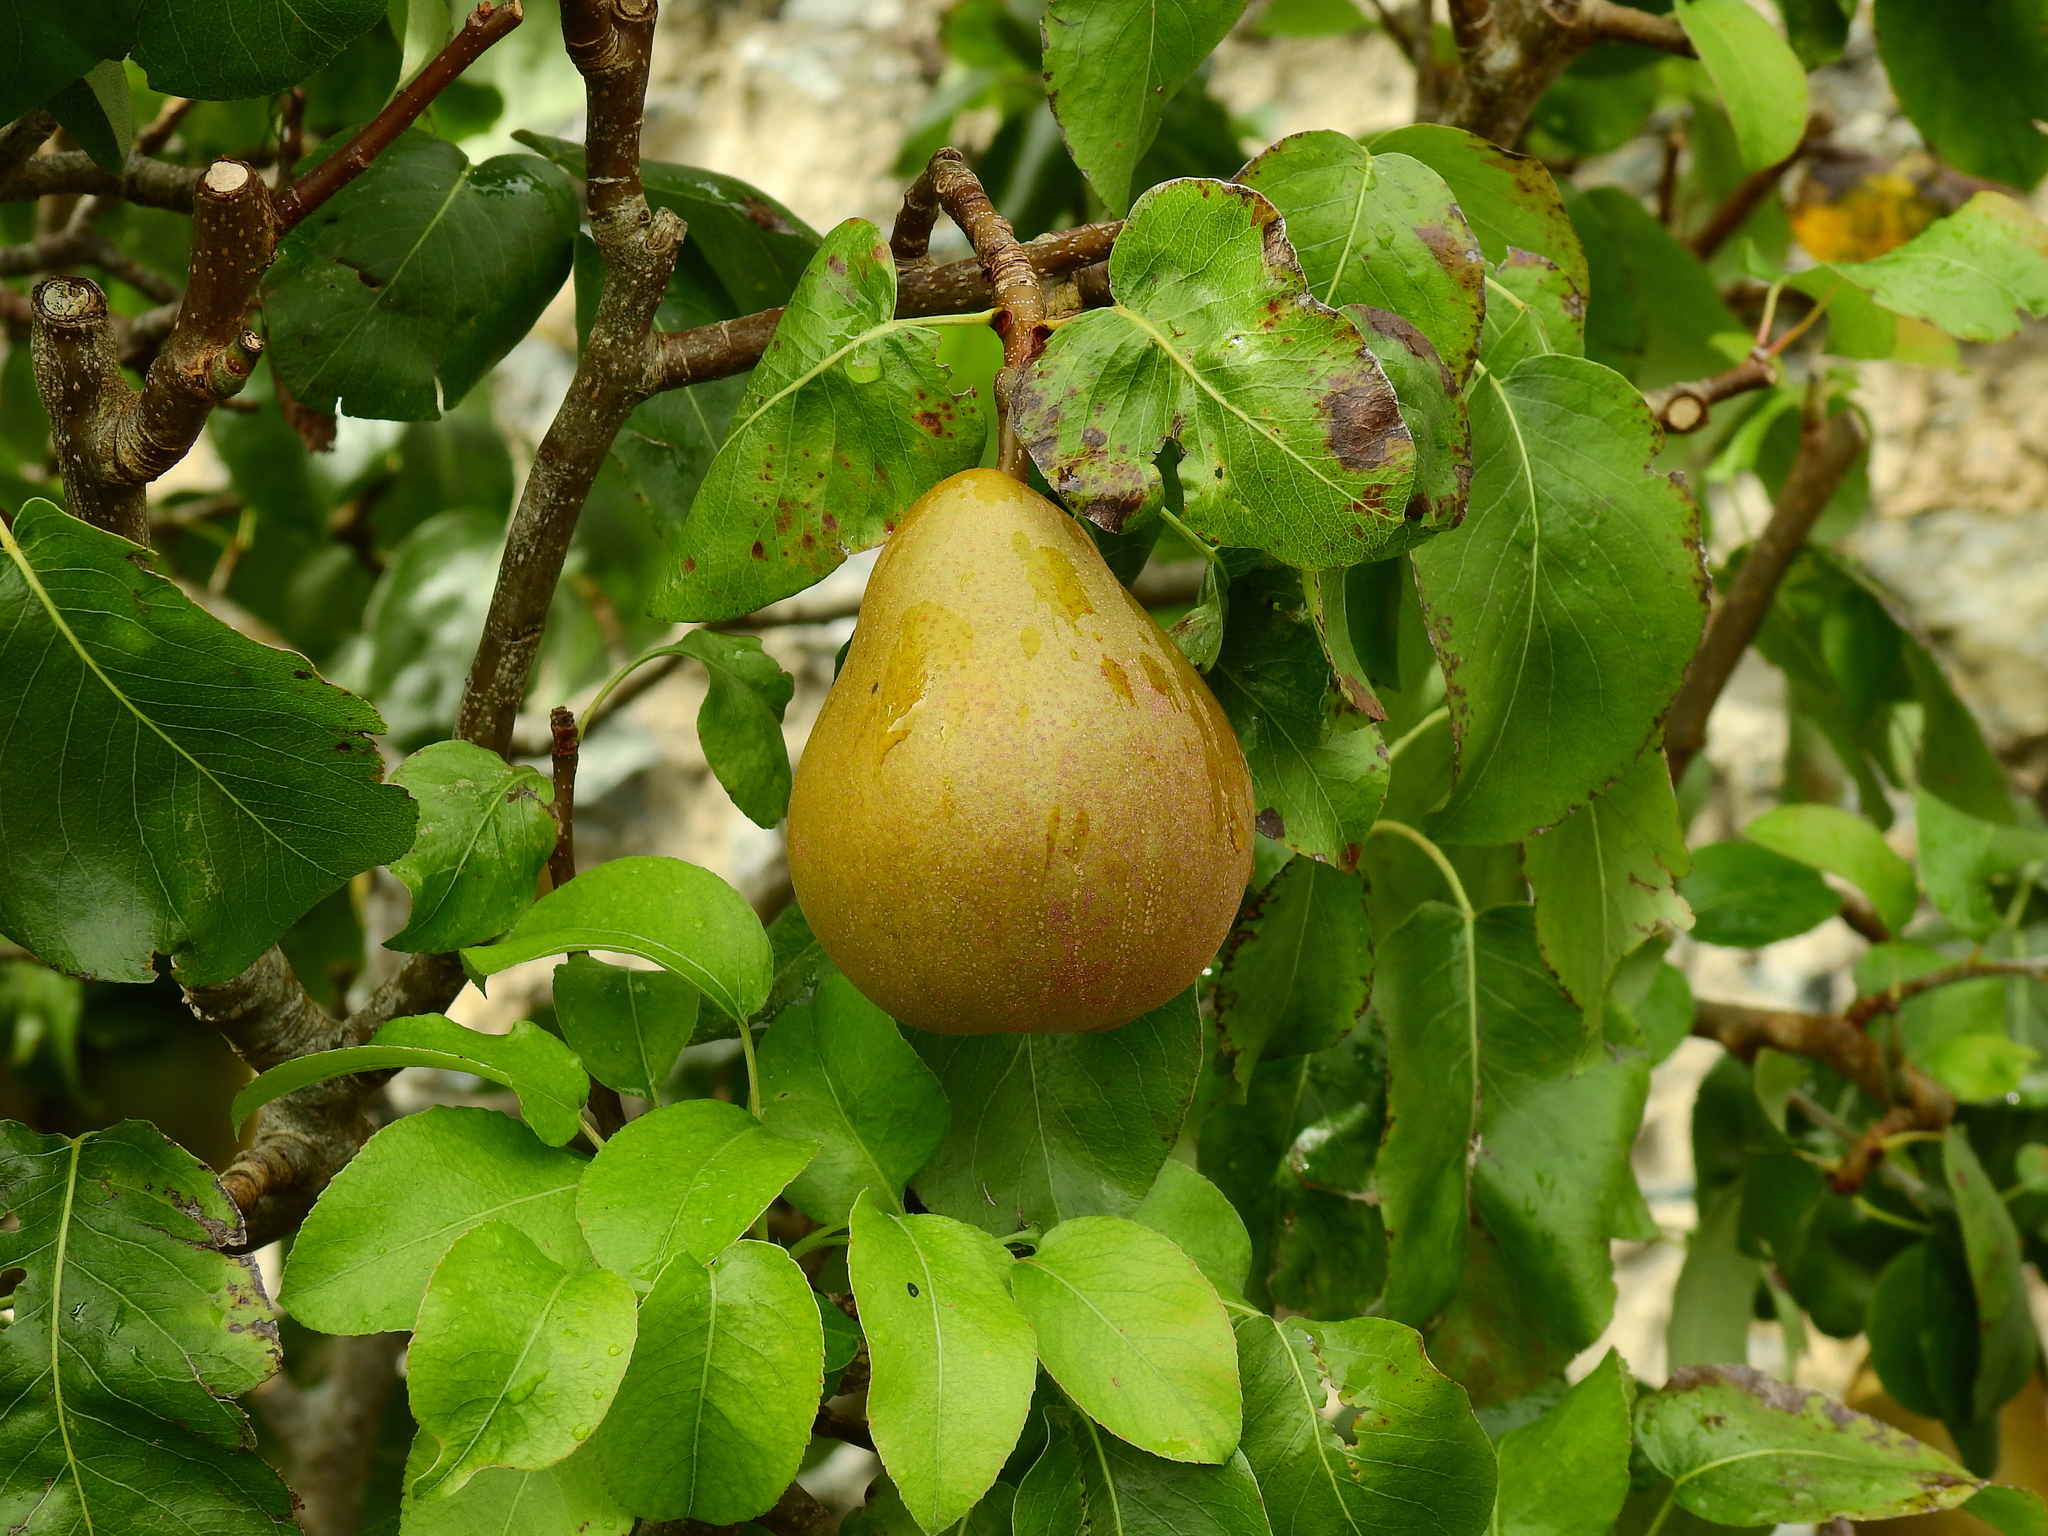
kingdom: Plantae
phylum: Tracheophyta
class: Magnoliopsida
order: Rosales
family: Rosaceae
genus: Pyrus
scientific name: Pyrus communis
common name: Pear
